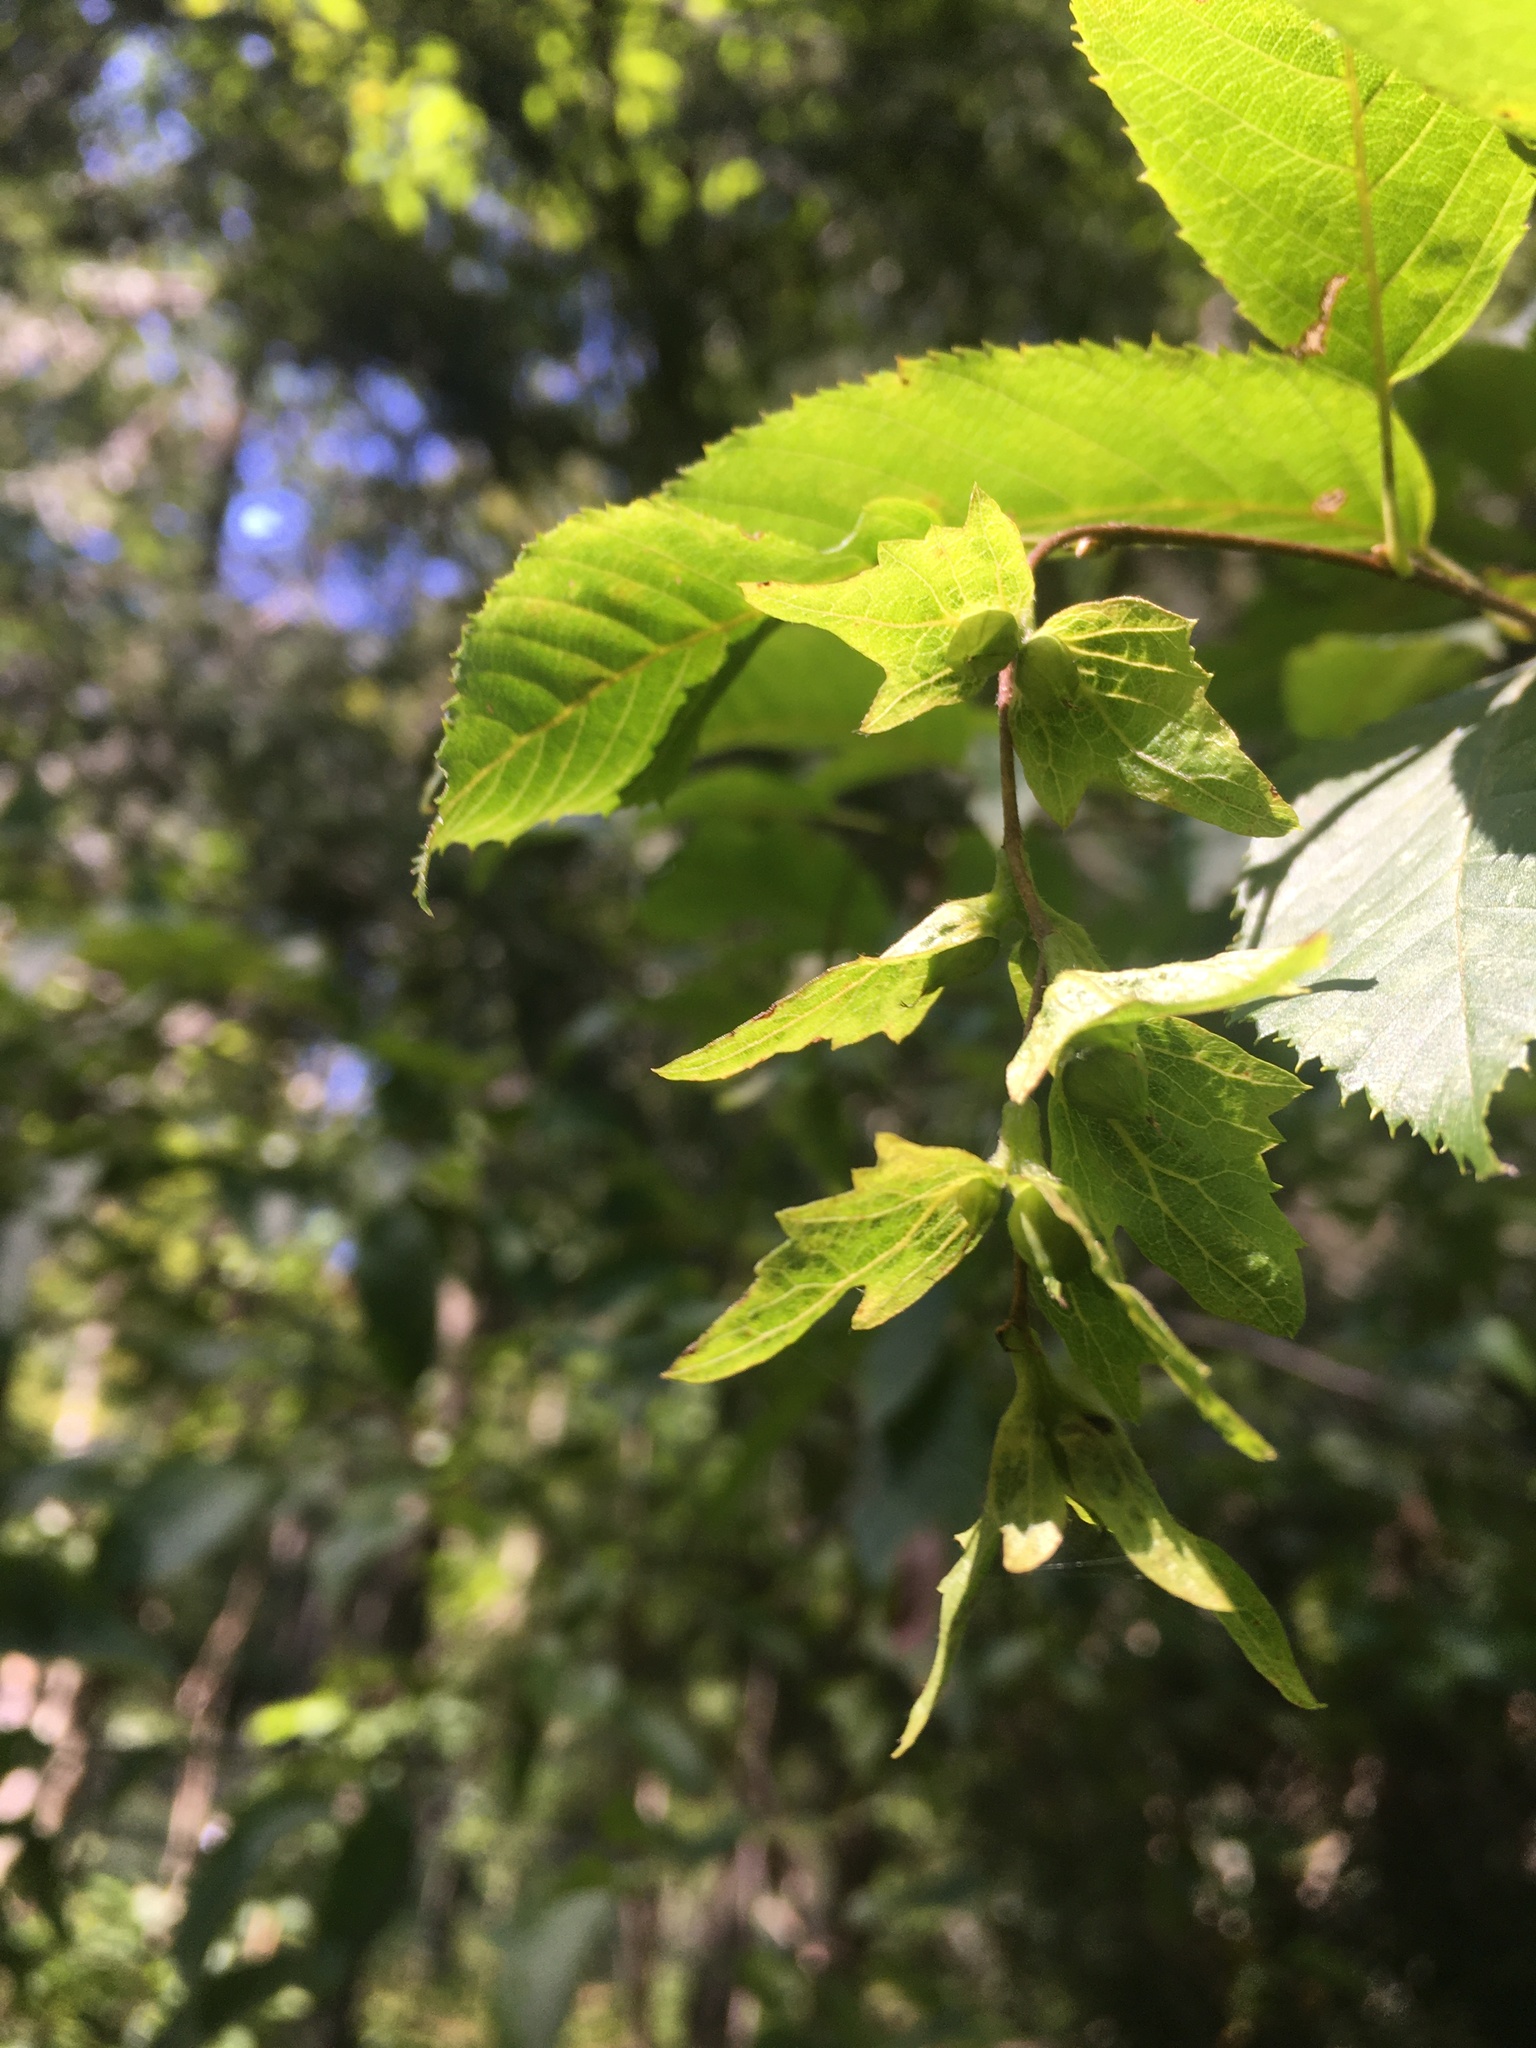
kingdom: Plantae
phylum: Tracheophyta
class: Magnoliopsida
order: Fagales
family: Betulaceae
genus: Carpinus
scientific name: Carpinus caroliniana
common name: American hornbeam
